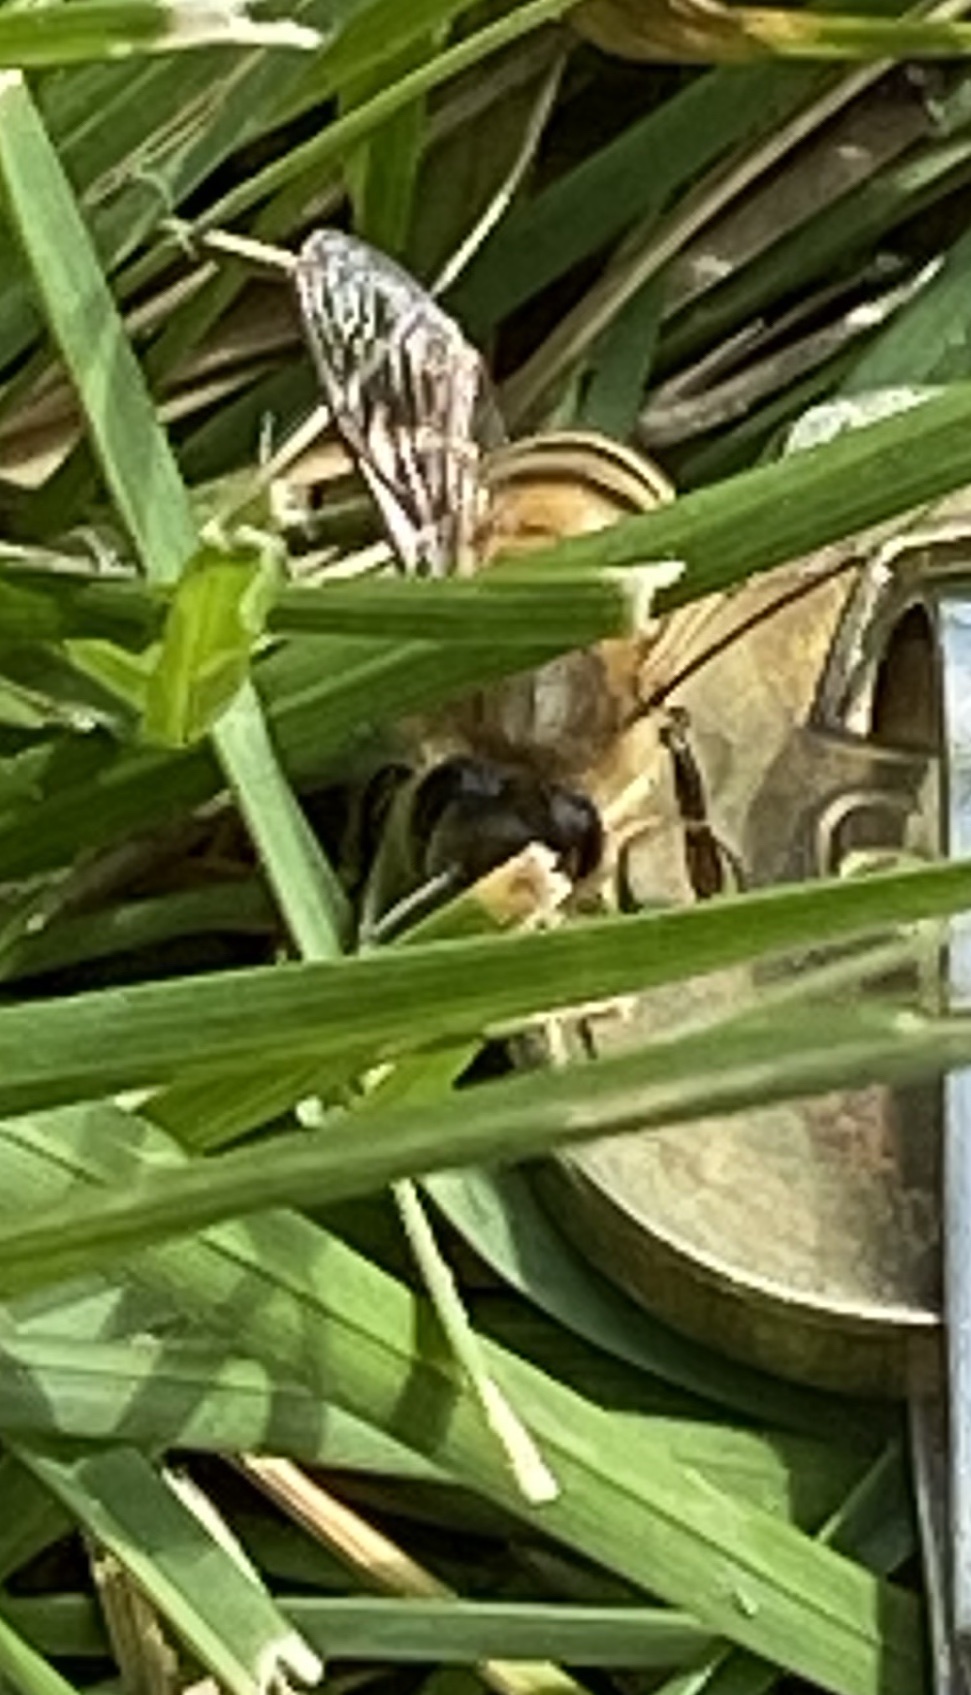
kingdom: Animalia
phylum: Arthropoda
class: Insecta
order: Hymenoptera
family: Apidae
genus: Apis
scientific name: Apis mellifera
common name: Honey bee
